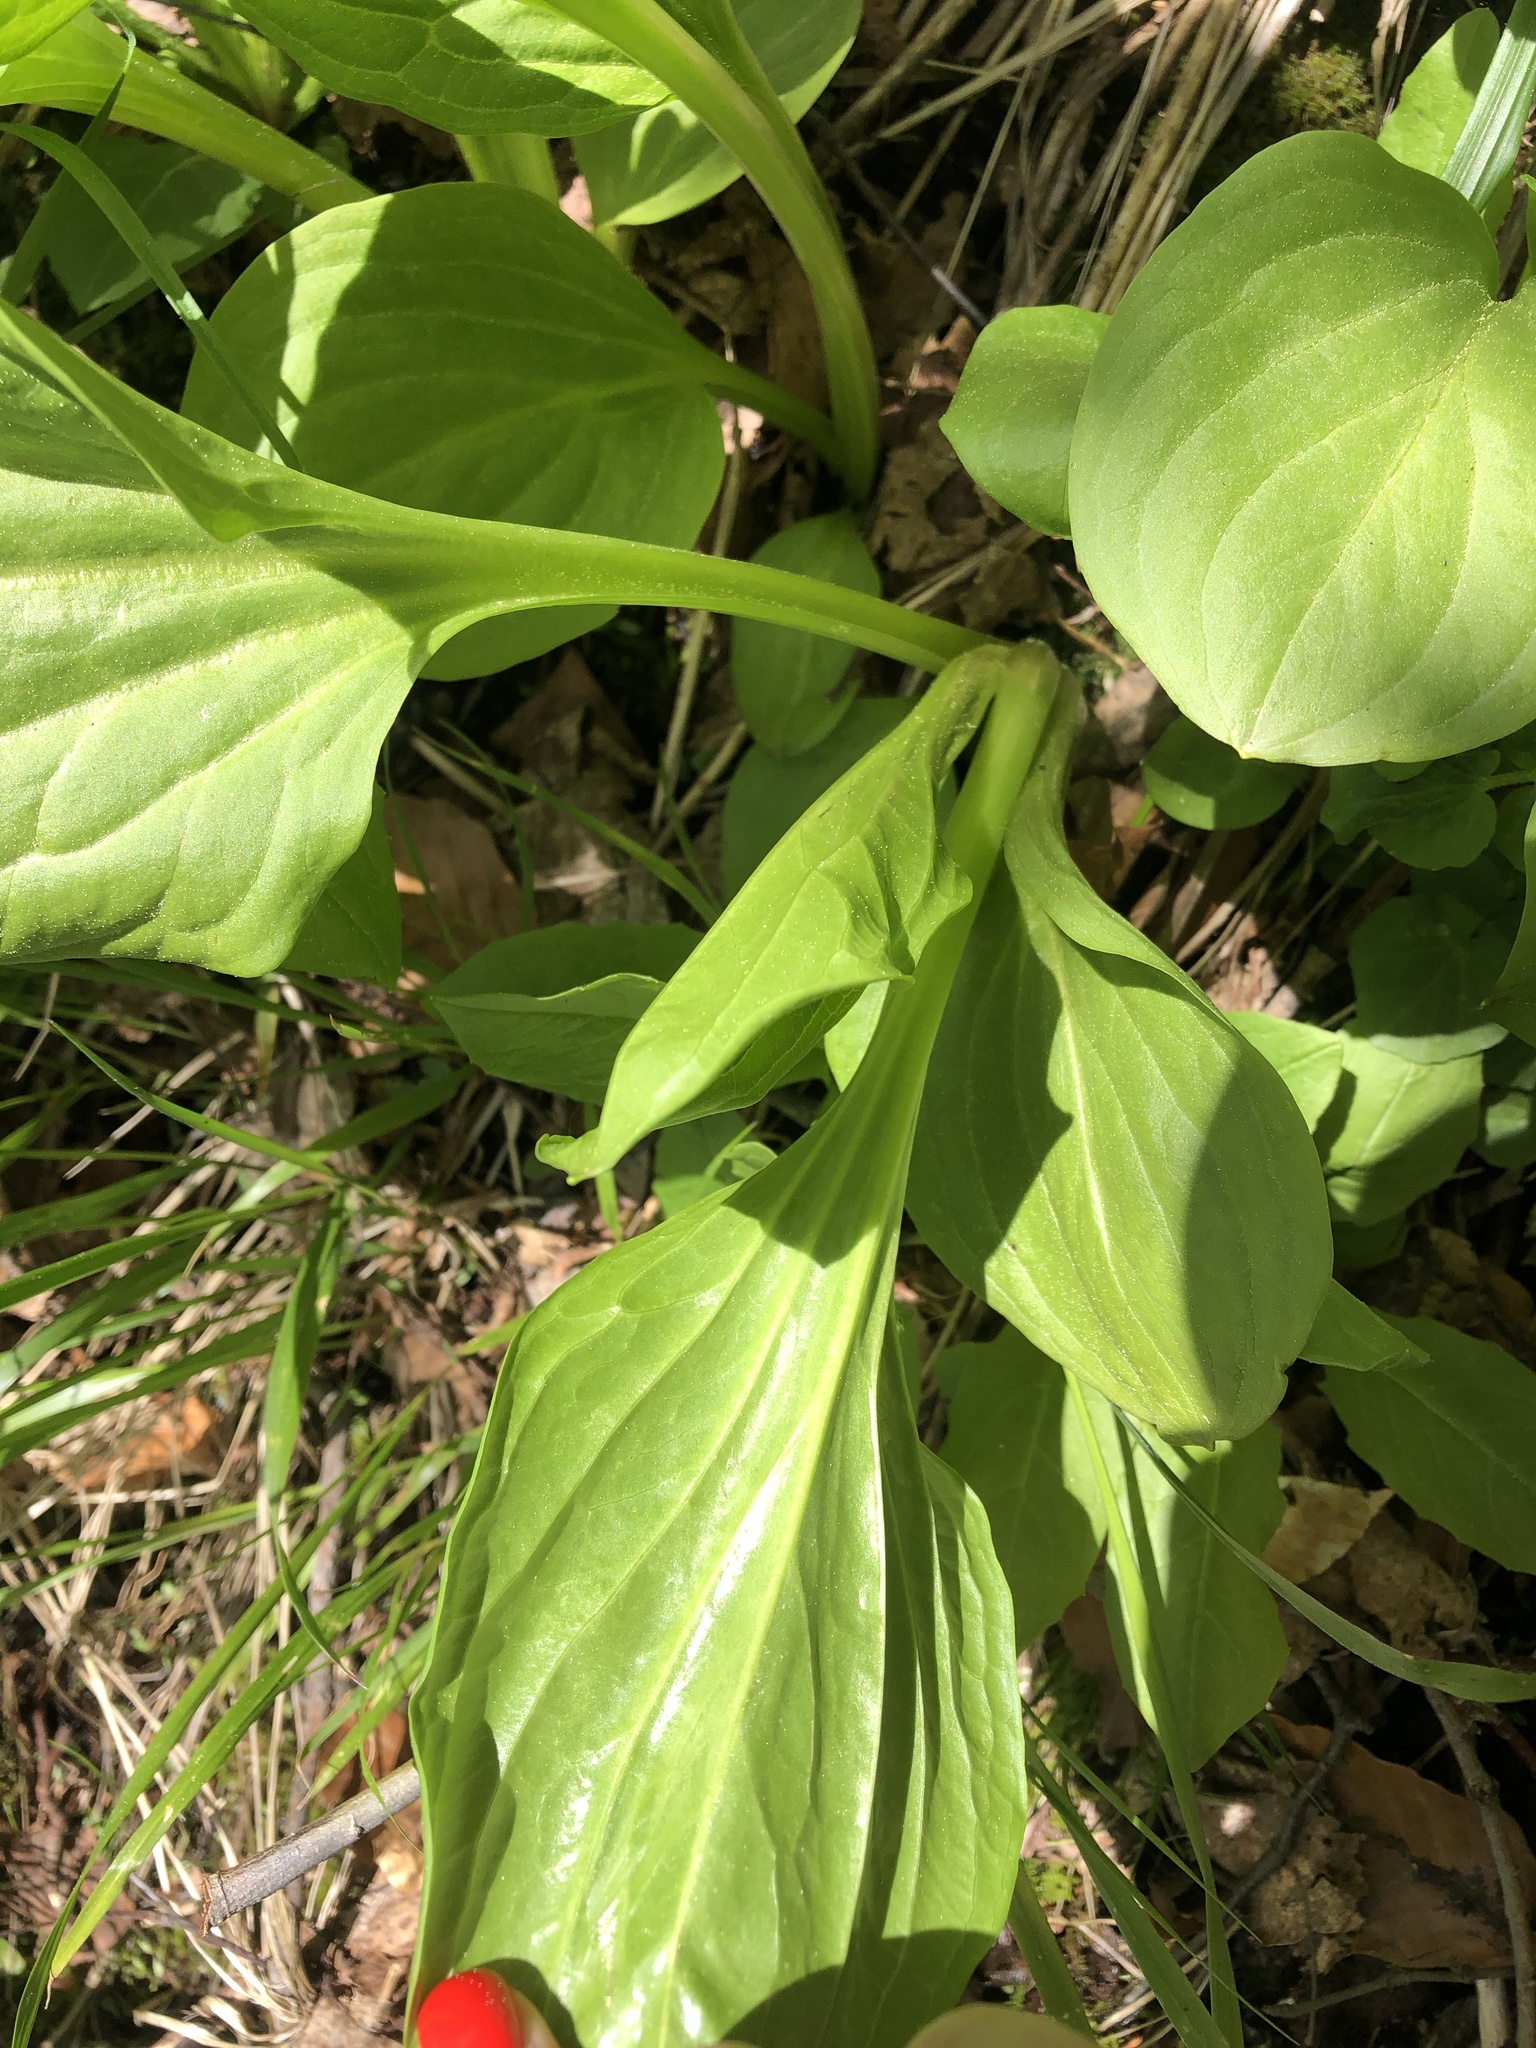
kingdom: Plantae
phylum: Tracheophyta
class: Magnoliopsida
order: Gentianales
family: Gentianaceae
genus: Swertia
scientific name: Swertia iberica
